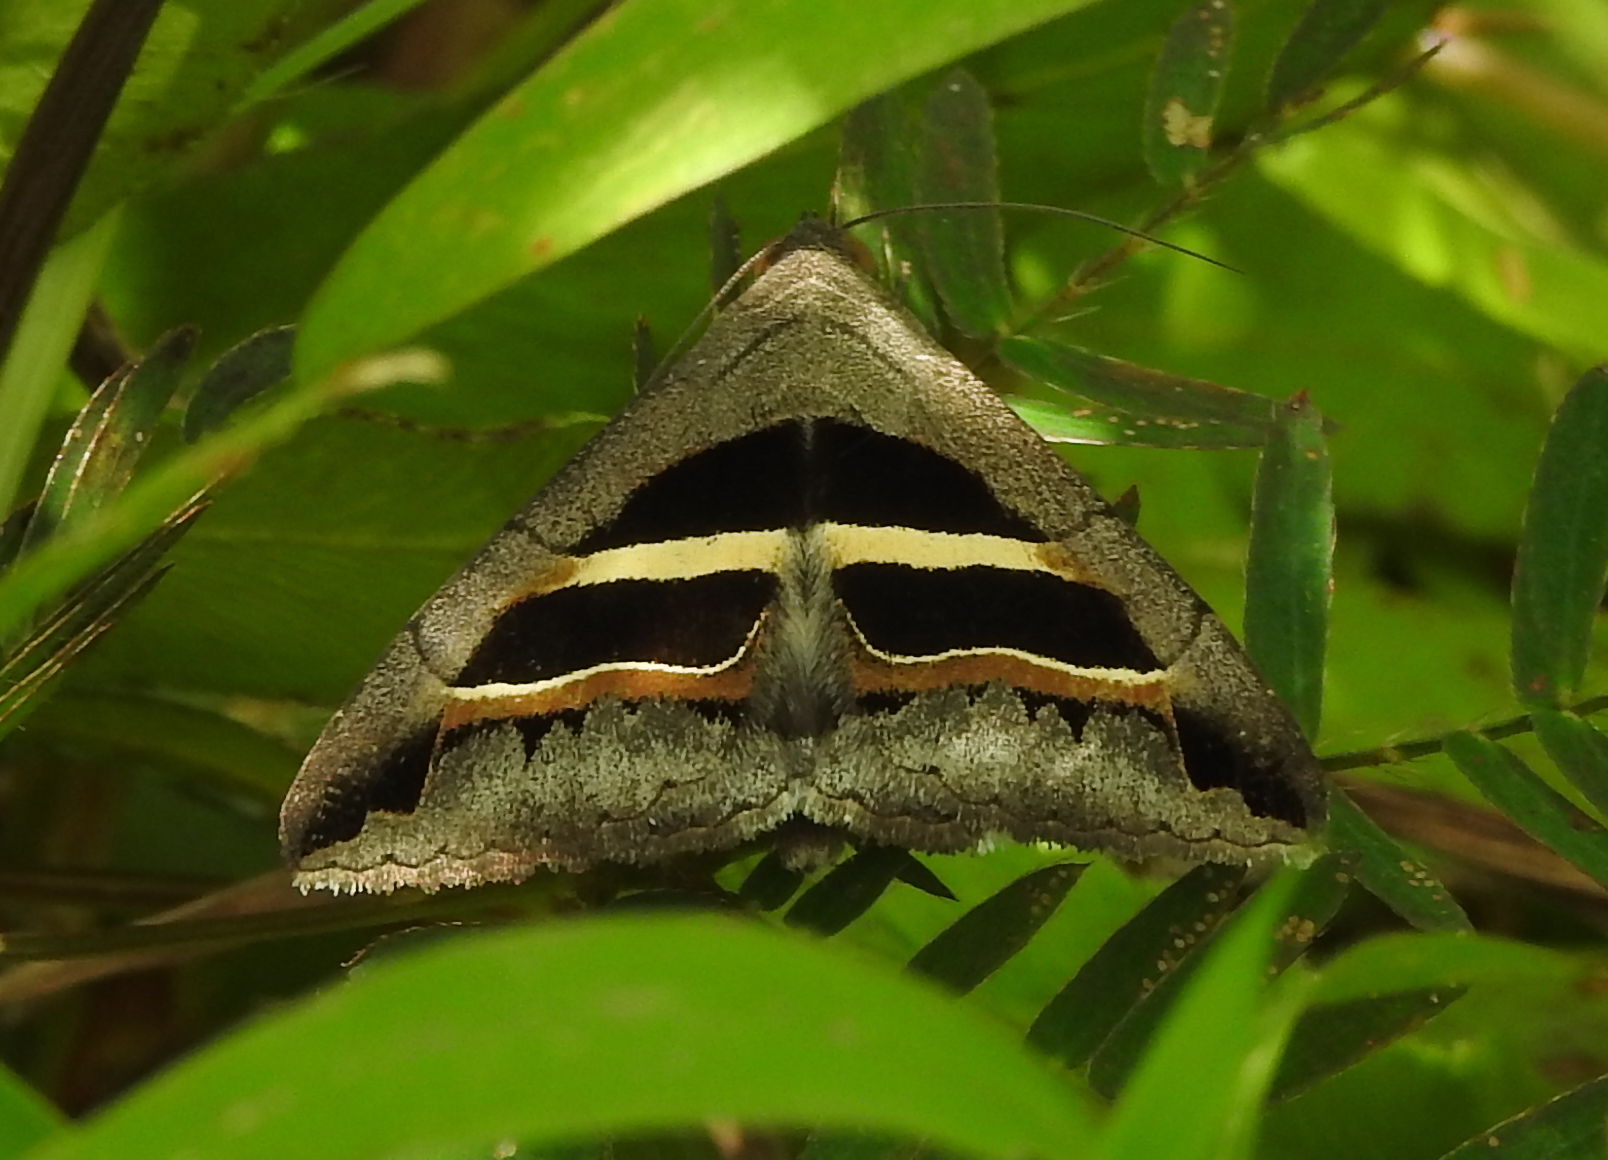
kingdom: Animalia
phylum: Arthropoda
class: Insecta
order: Lepidoptera
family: Erebidae
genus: Grammodes
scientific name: Grammodes geometrica
